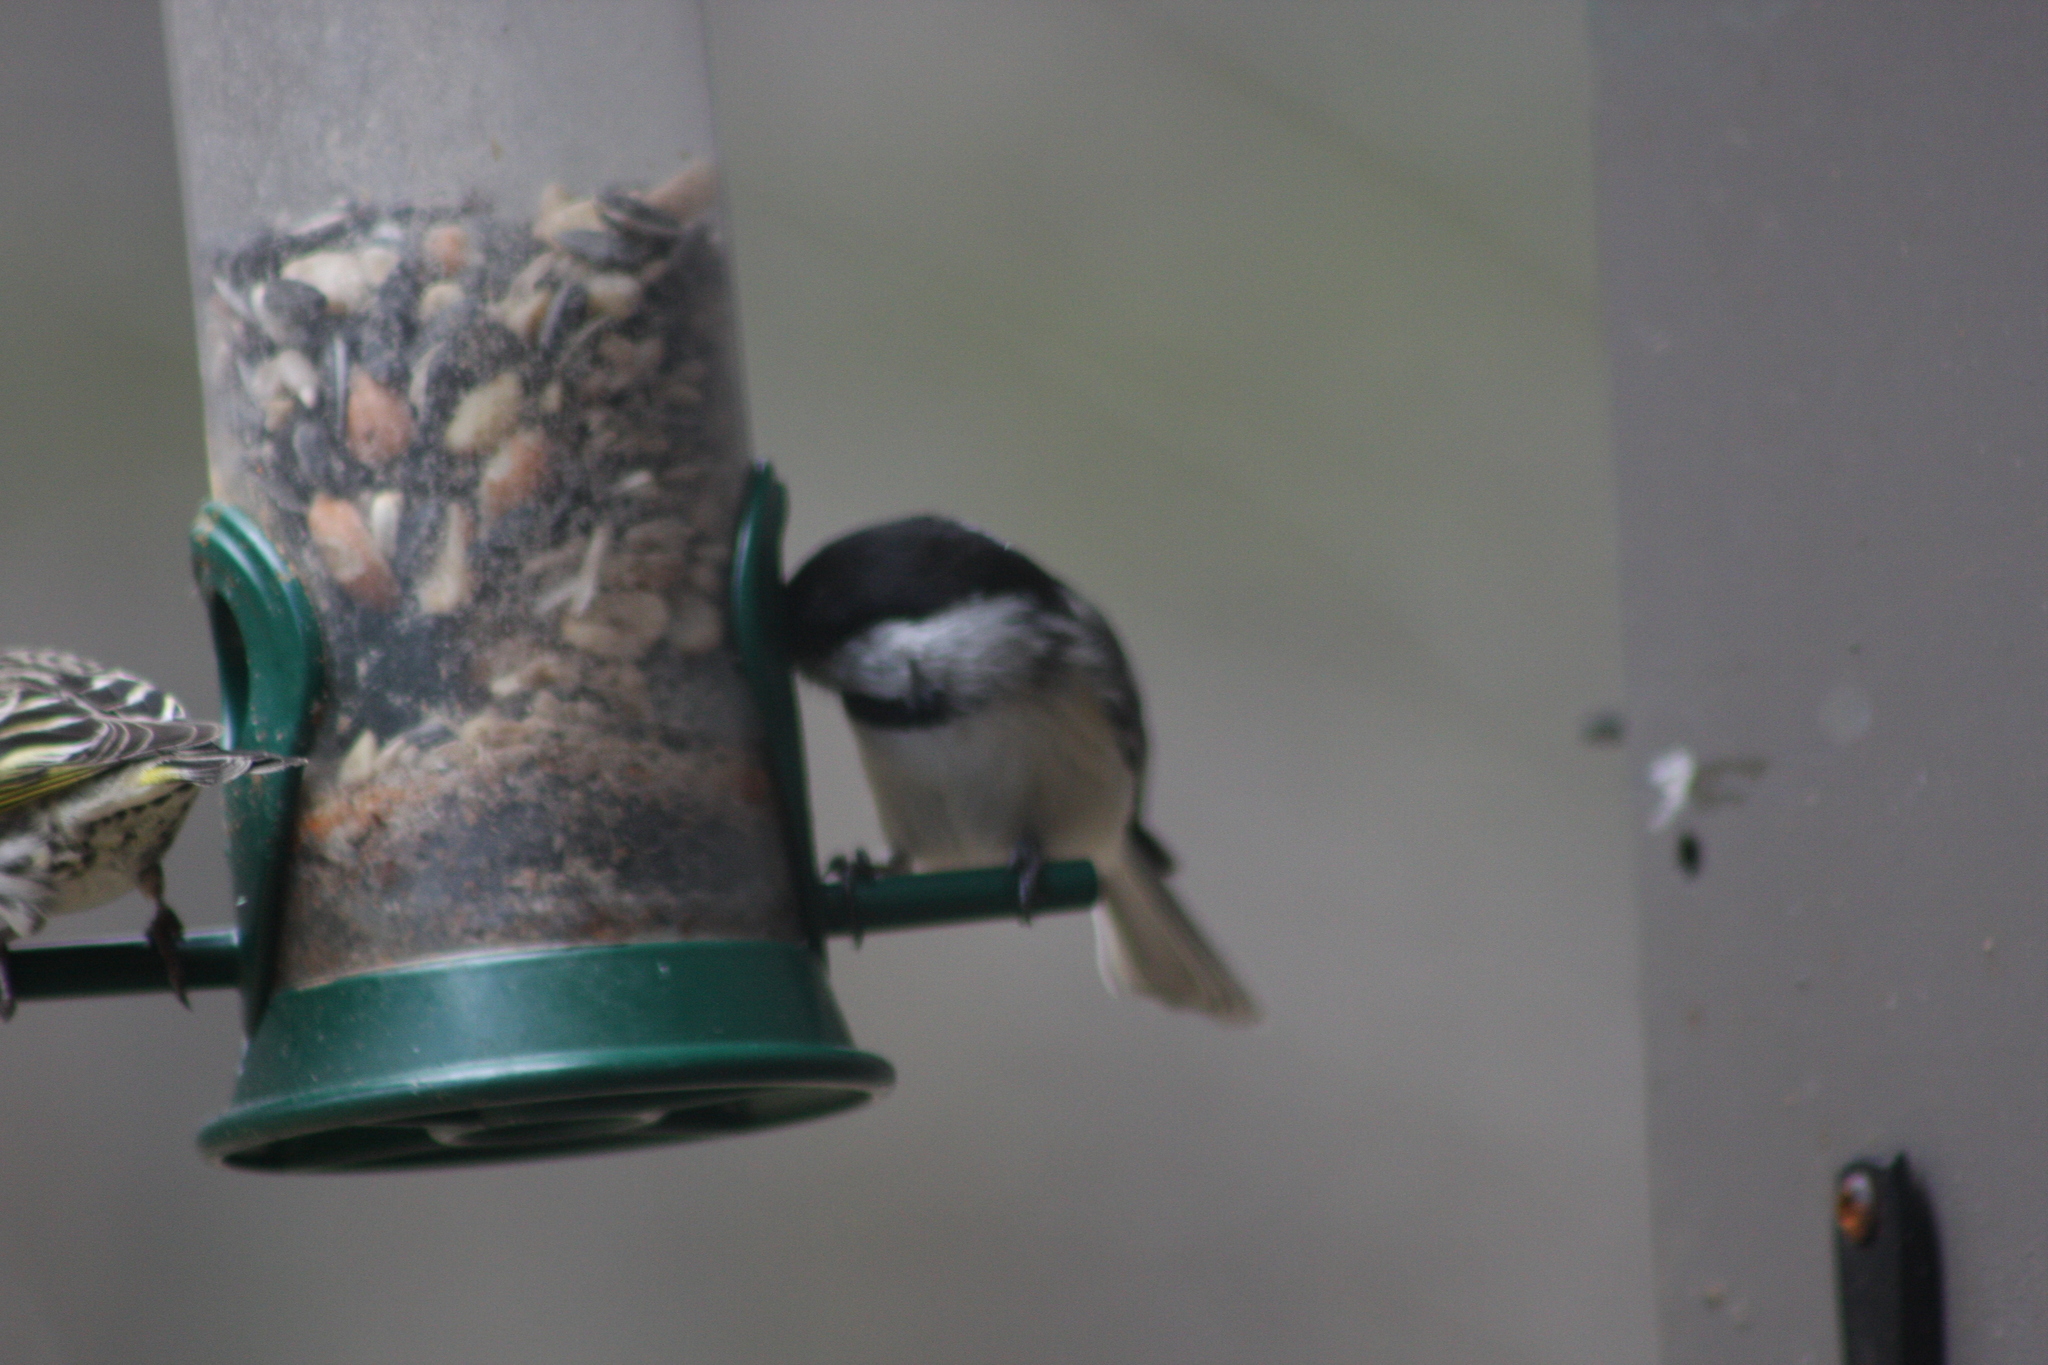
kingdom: Animalia
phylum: Chordata
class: Aves
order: Passeriformes
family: Paridae
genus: Poecile
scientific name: Poecile atricapillus
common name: Black-capped chickadee
